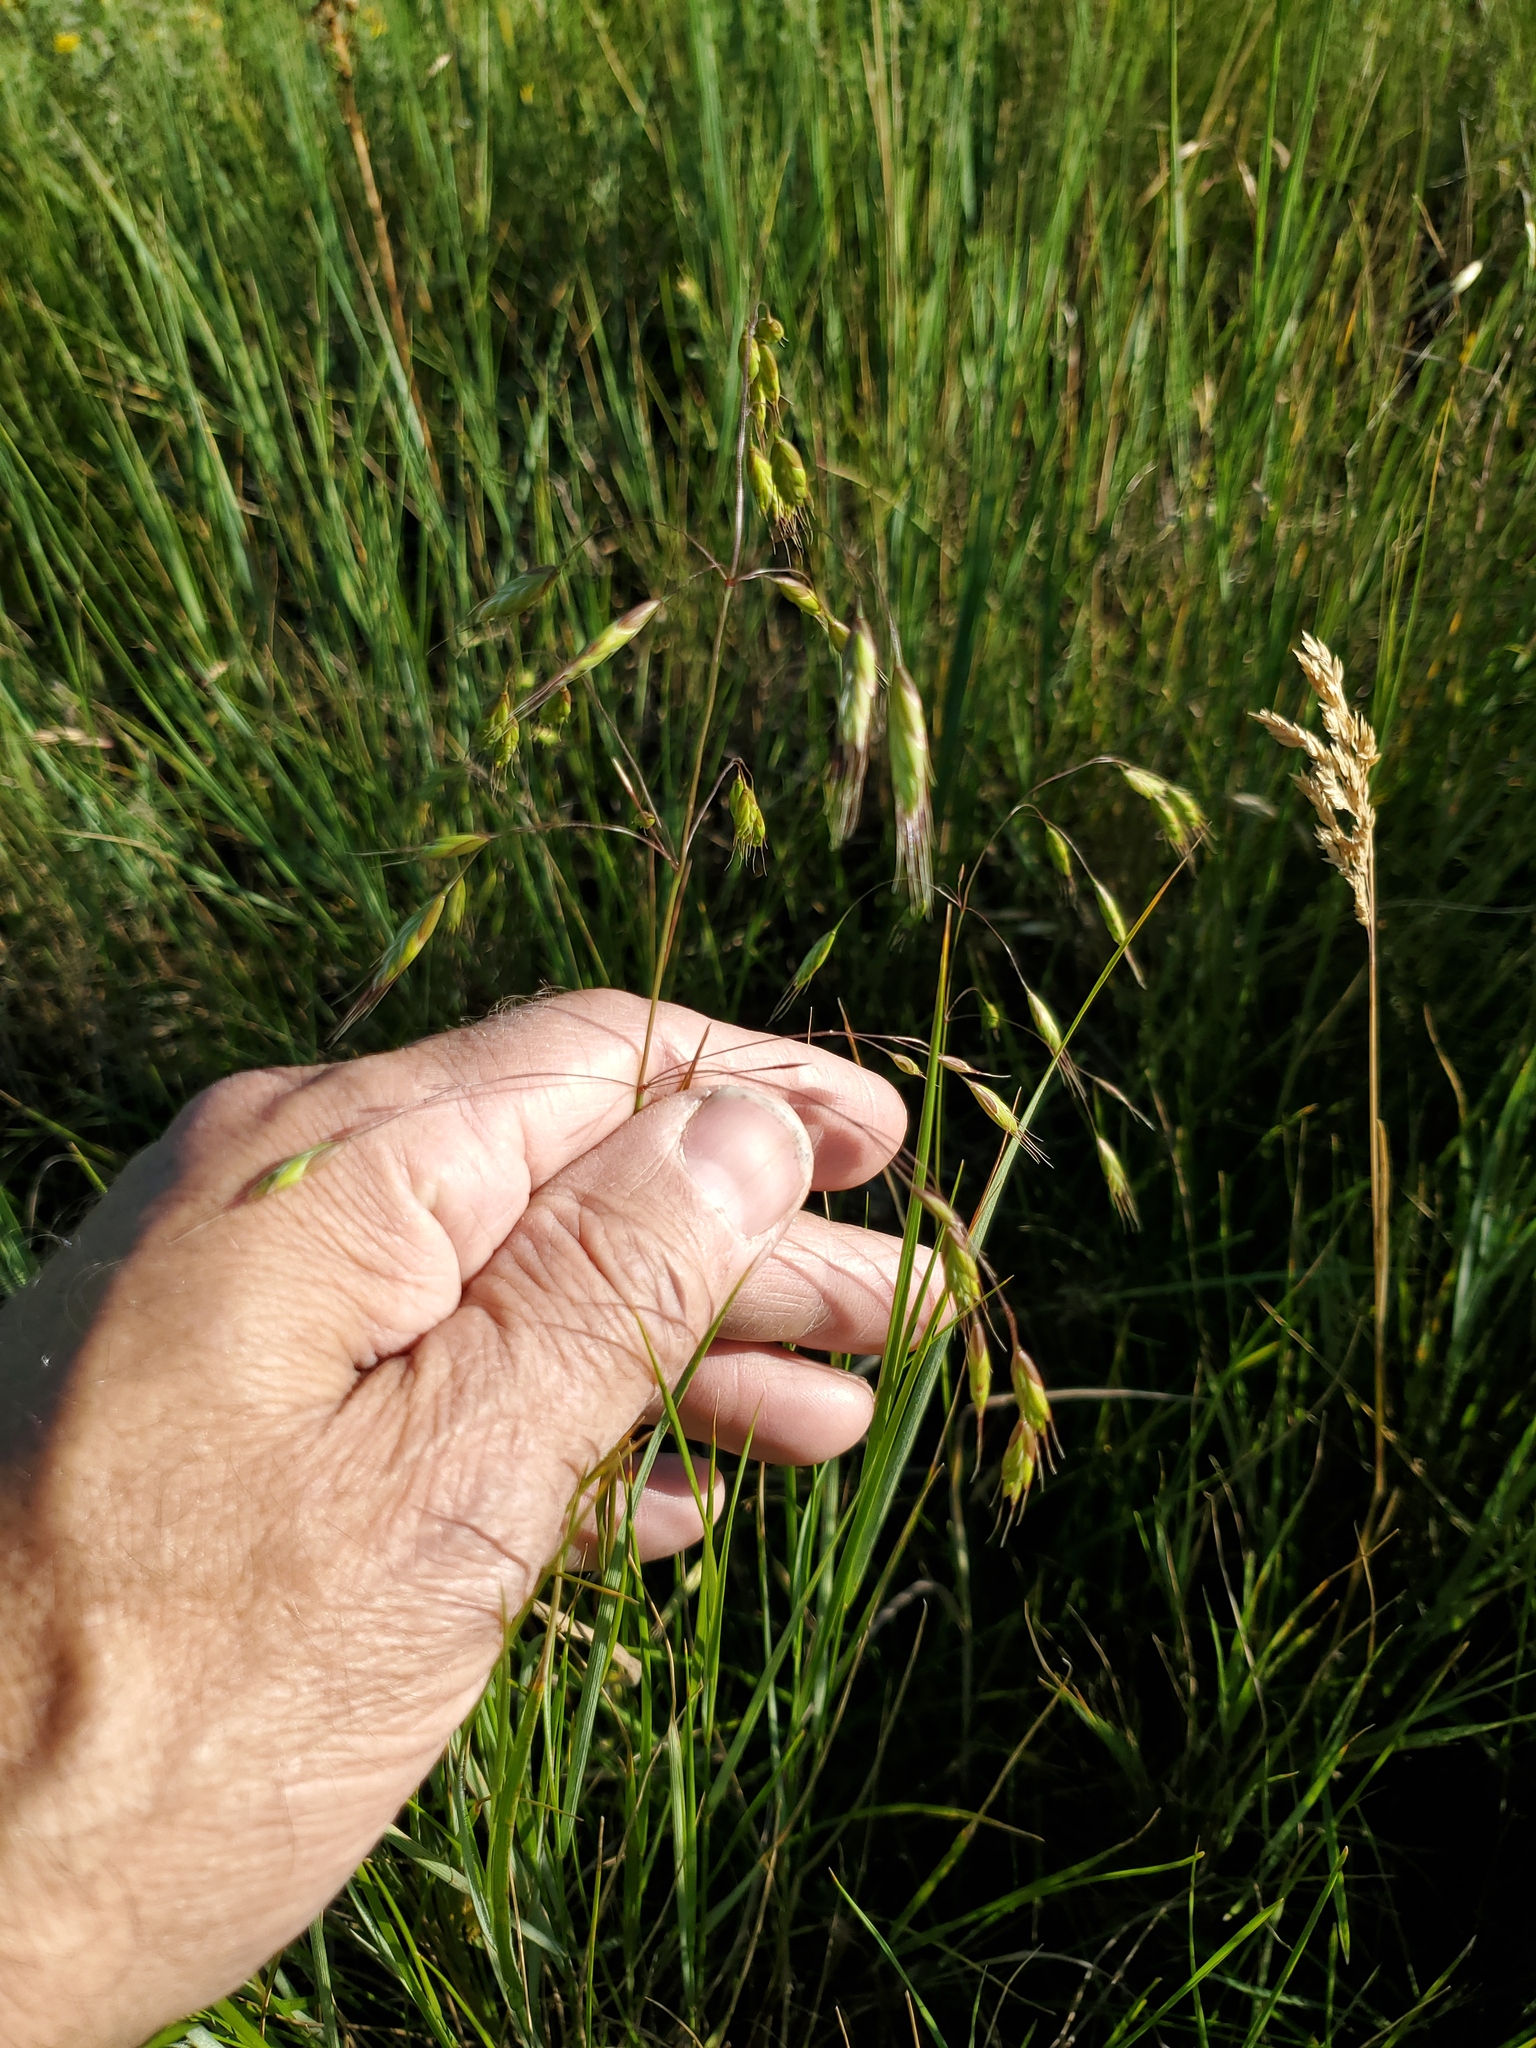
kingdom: Plantae
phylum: Tracheophyta
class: Liliopsida
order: Poales
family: Poaceae
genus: Bromus
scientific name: Bromus japonicus
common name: Japanese brome
